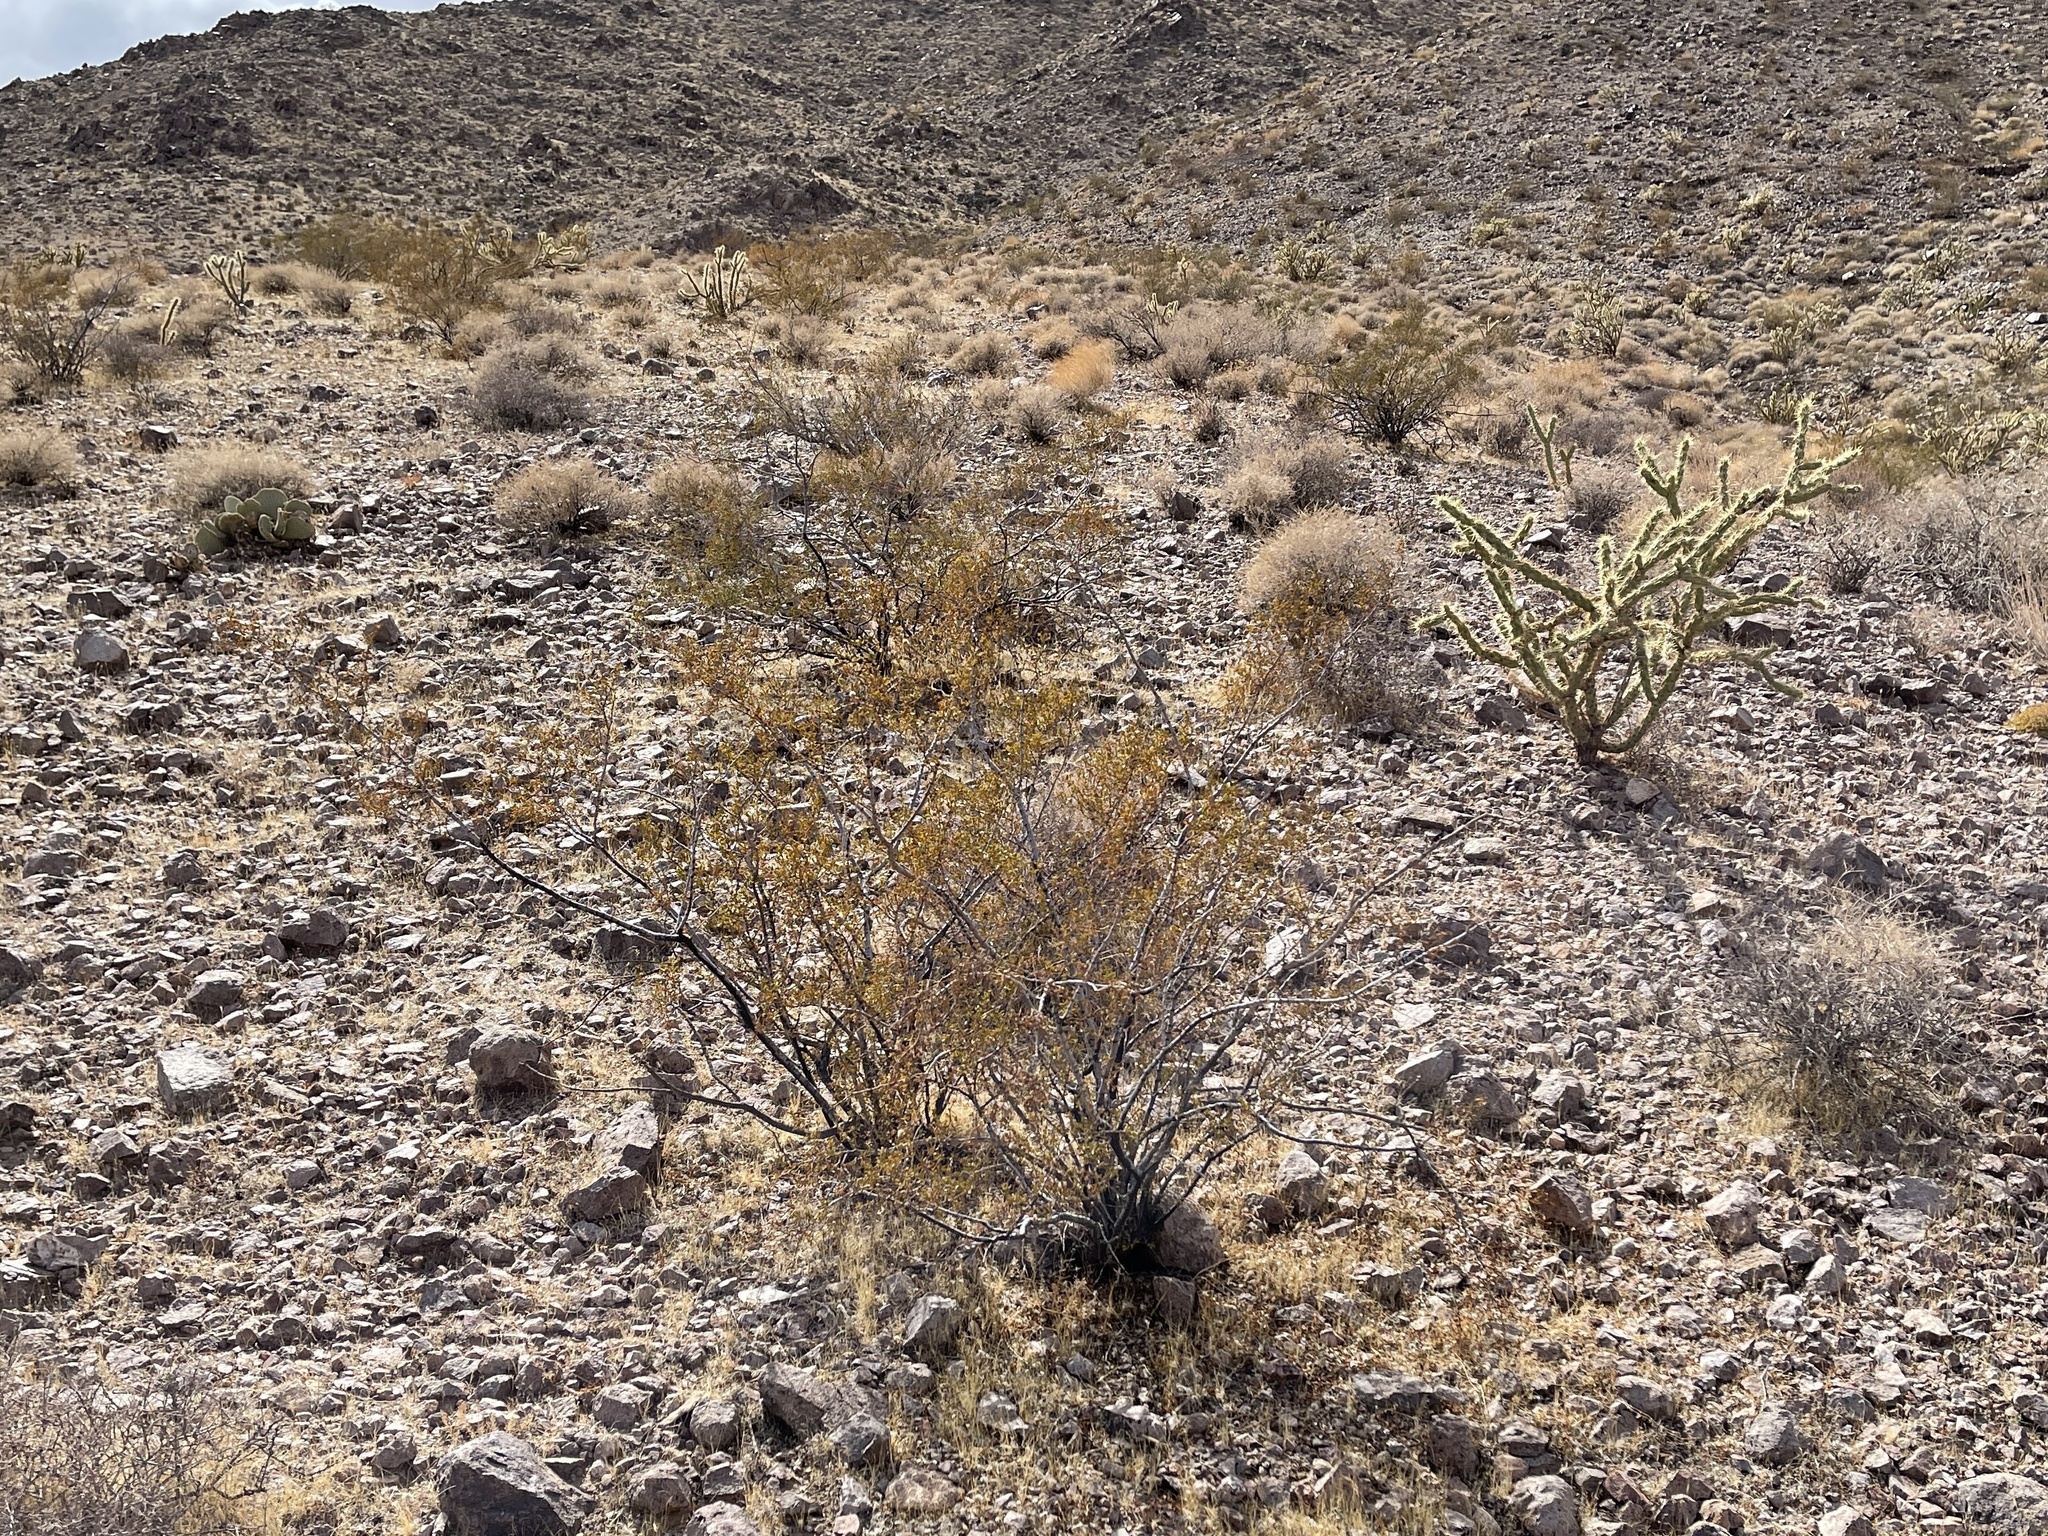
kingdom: Plantae
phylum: Tracheophyta
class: Magnoliopsida
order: Zygophyllales
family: Zygophyllaceae
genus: Larrea
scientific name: Larrea tridentata
